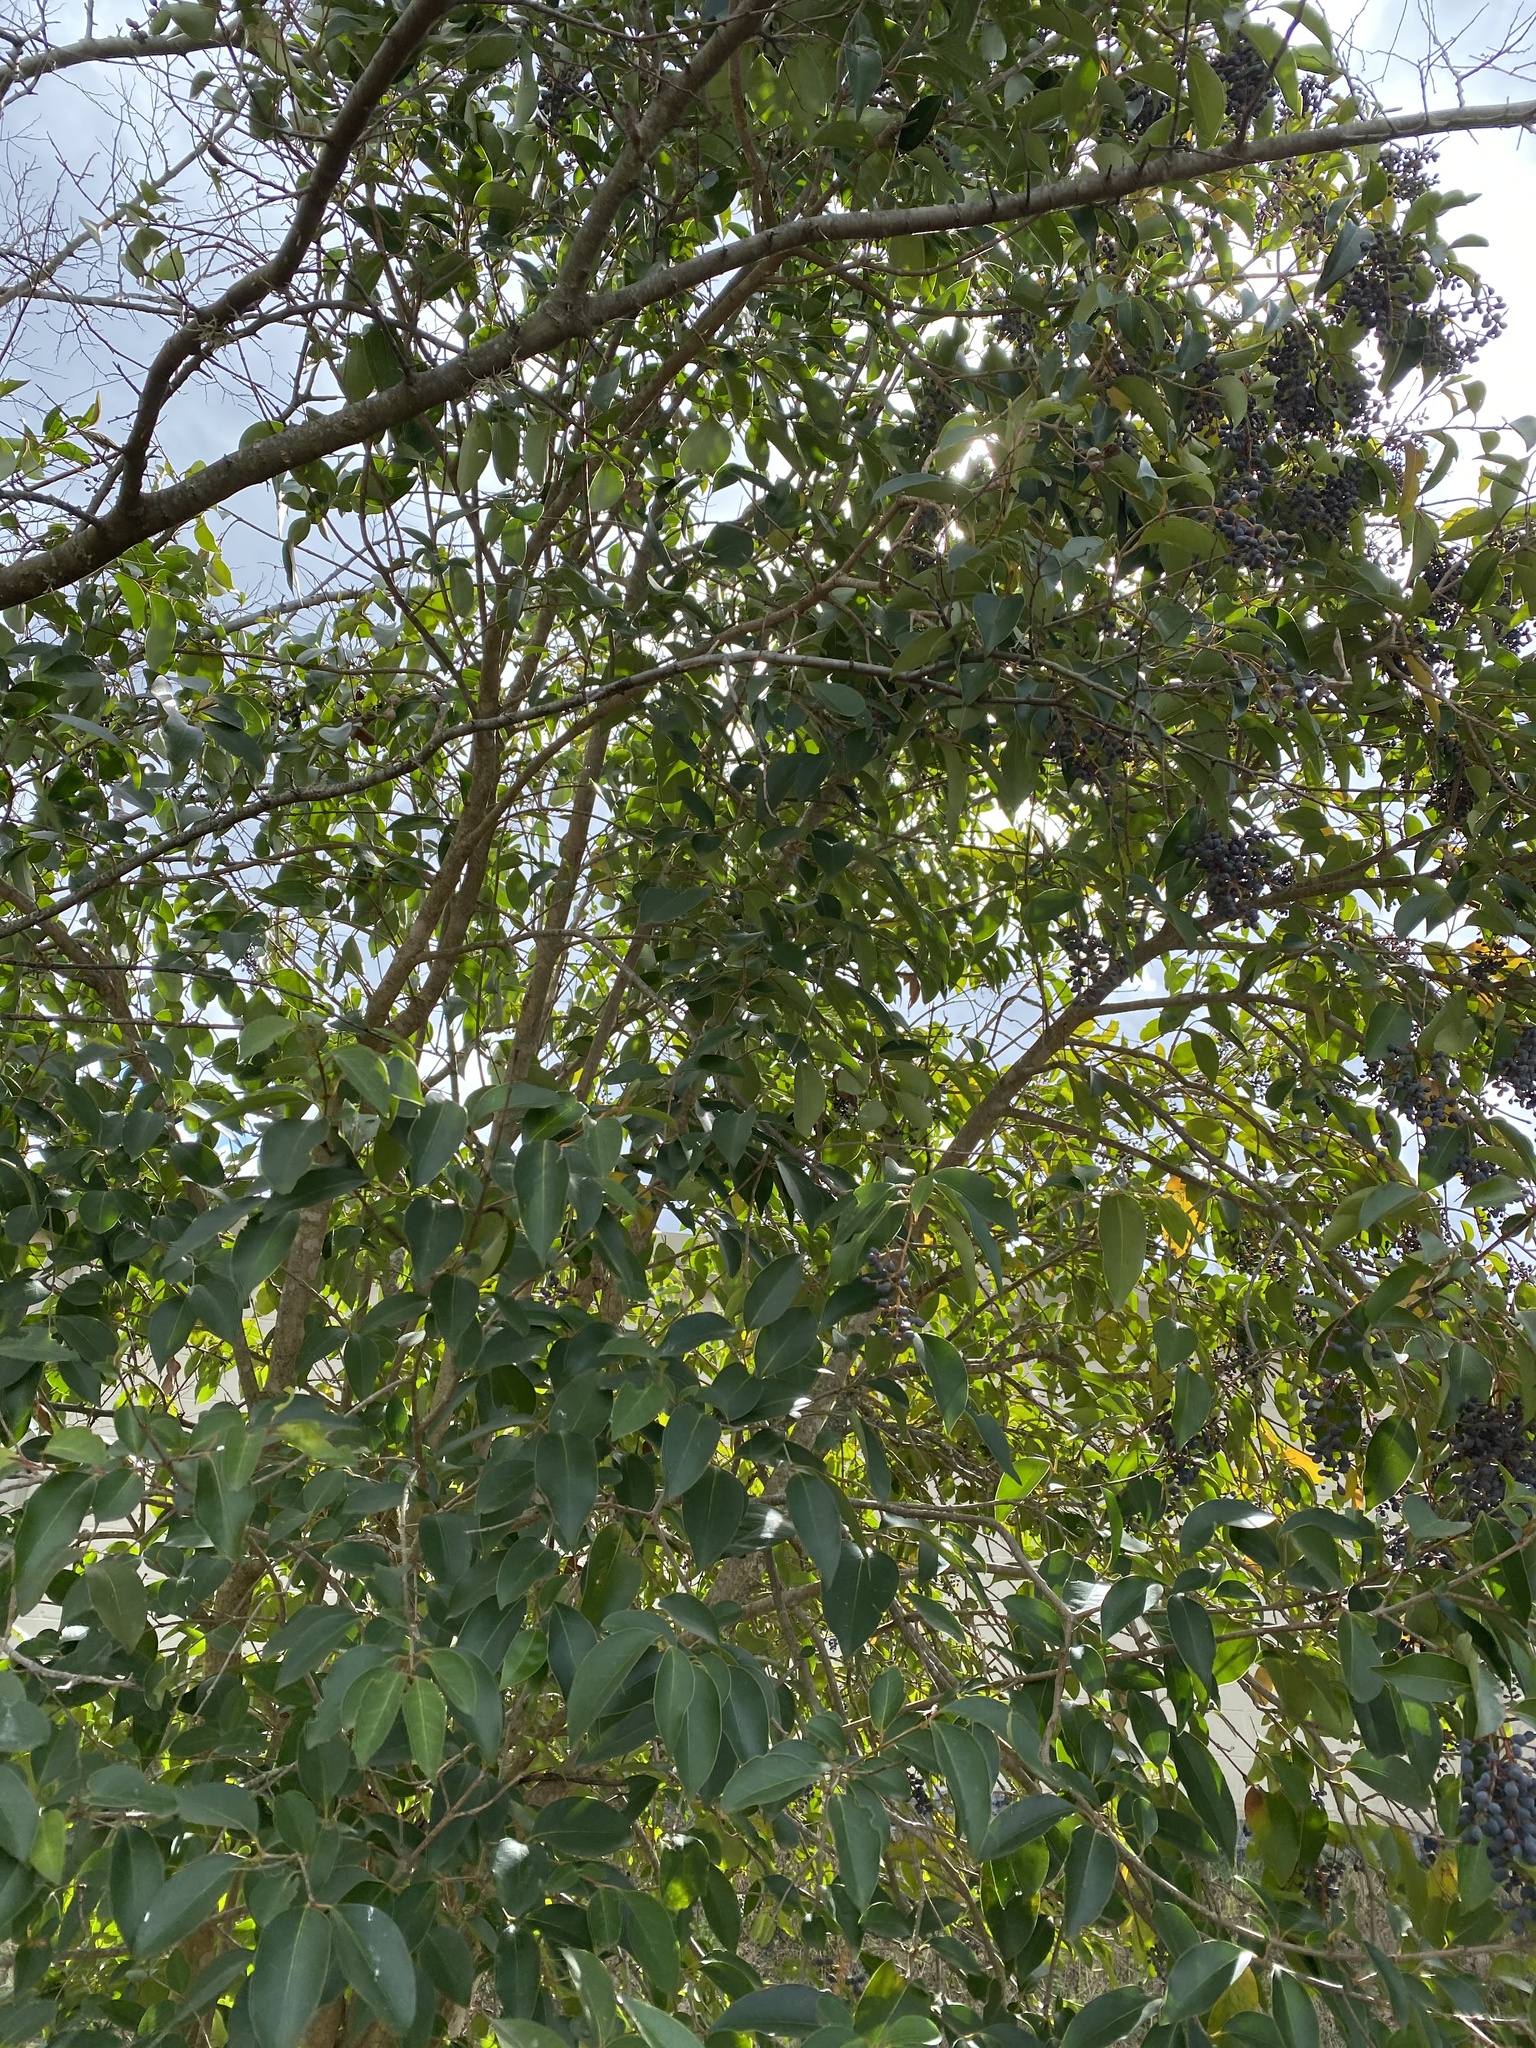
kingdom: Plantae
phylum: Tracheophyta
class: Magnoliopsida
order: Lamiales
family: Oleaceae
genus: Ligustrum
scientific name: Ligustrum lucidum
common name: Glossy privet
